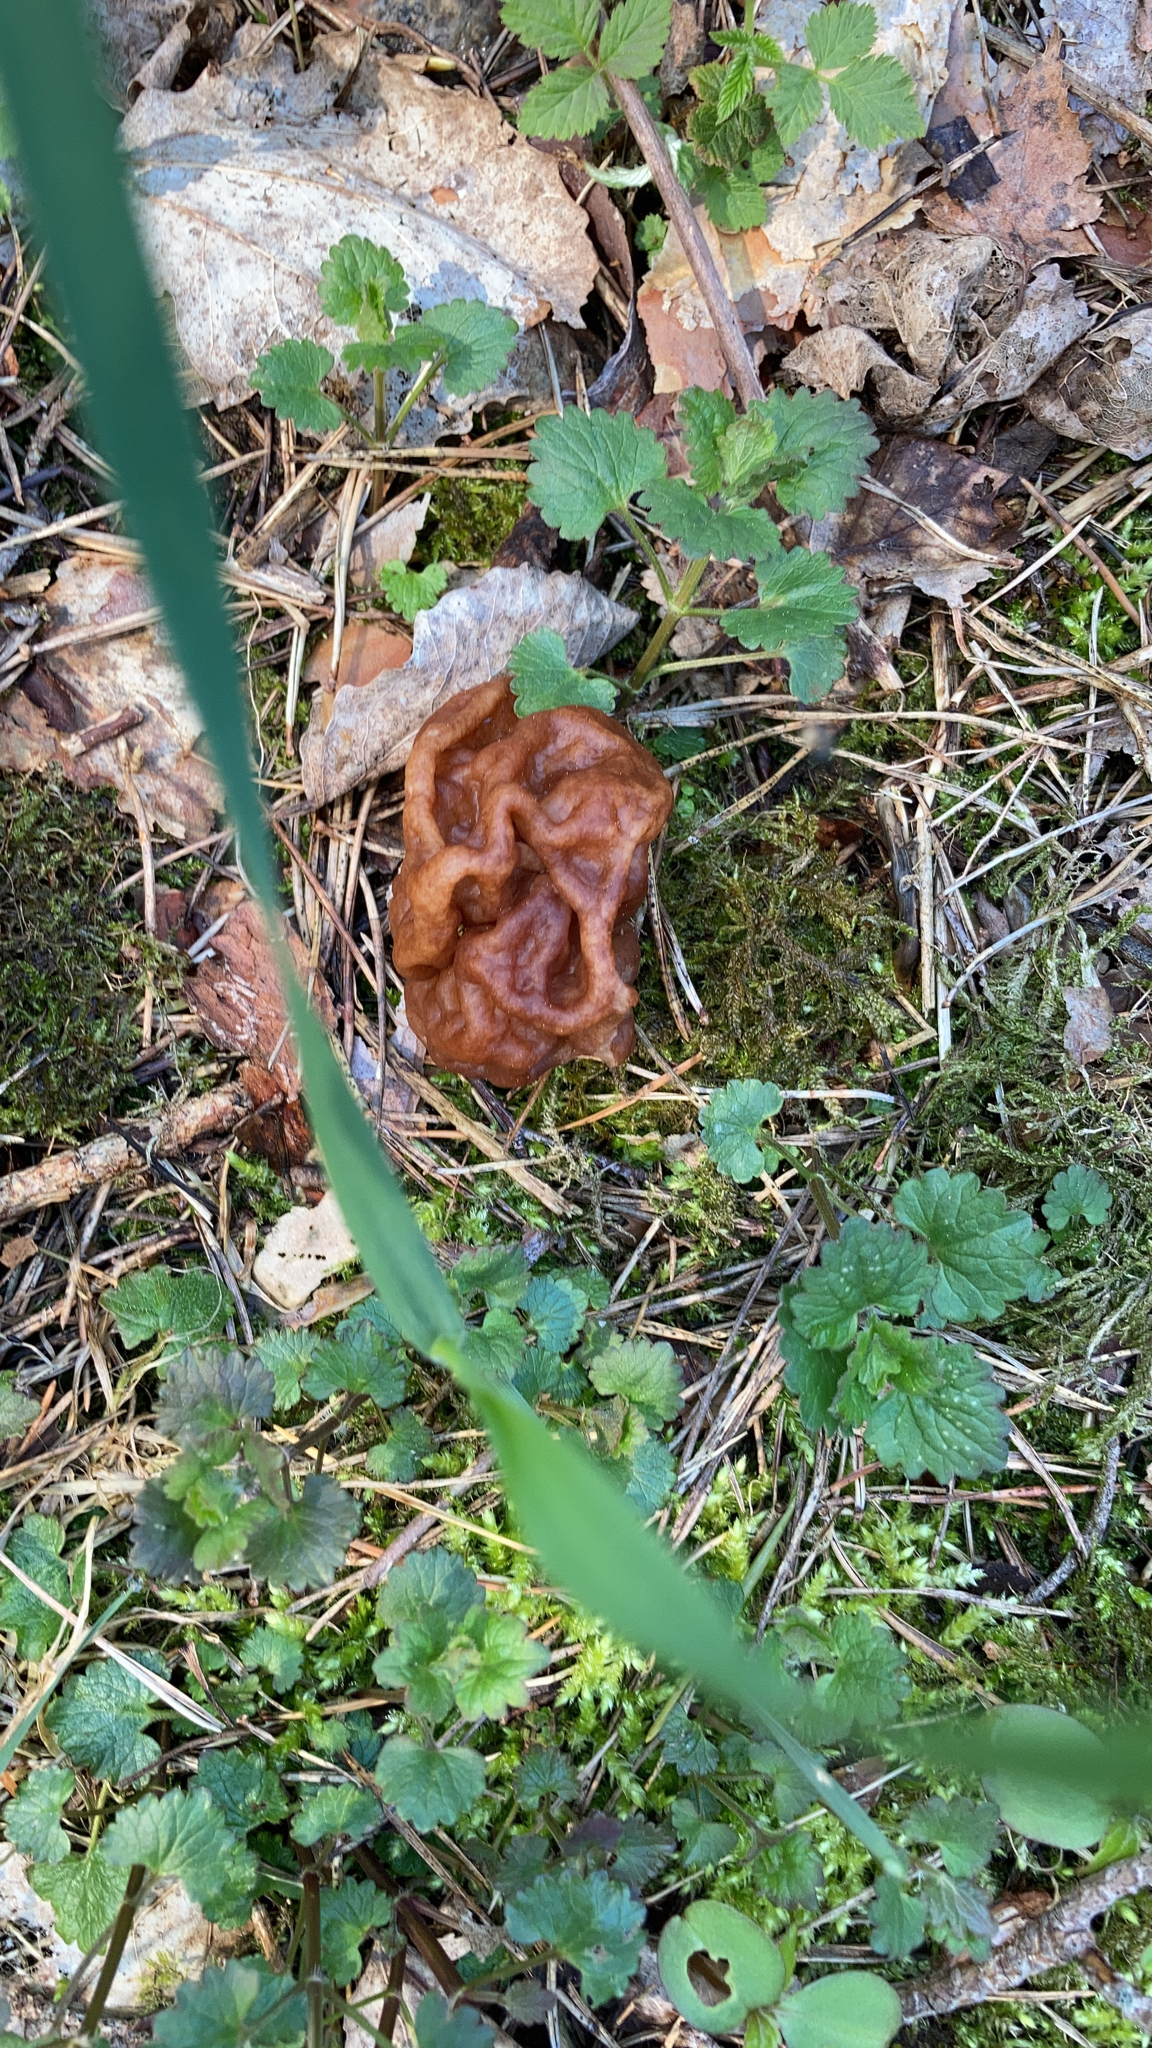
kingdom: Fungi
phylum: Ascomycota
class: Pezizomycetes
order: Pezizales
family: Discinaceae
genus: Gyromitra
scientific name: Gyromitra esculenta
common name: False morel
